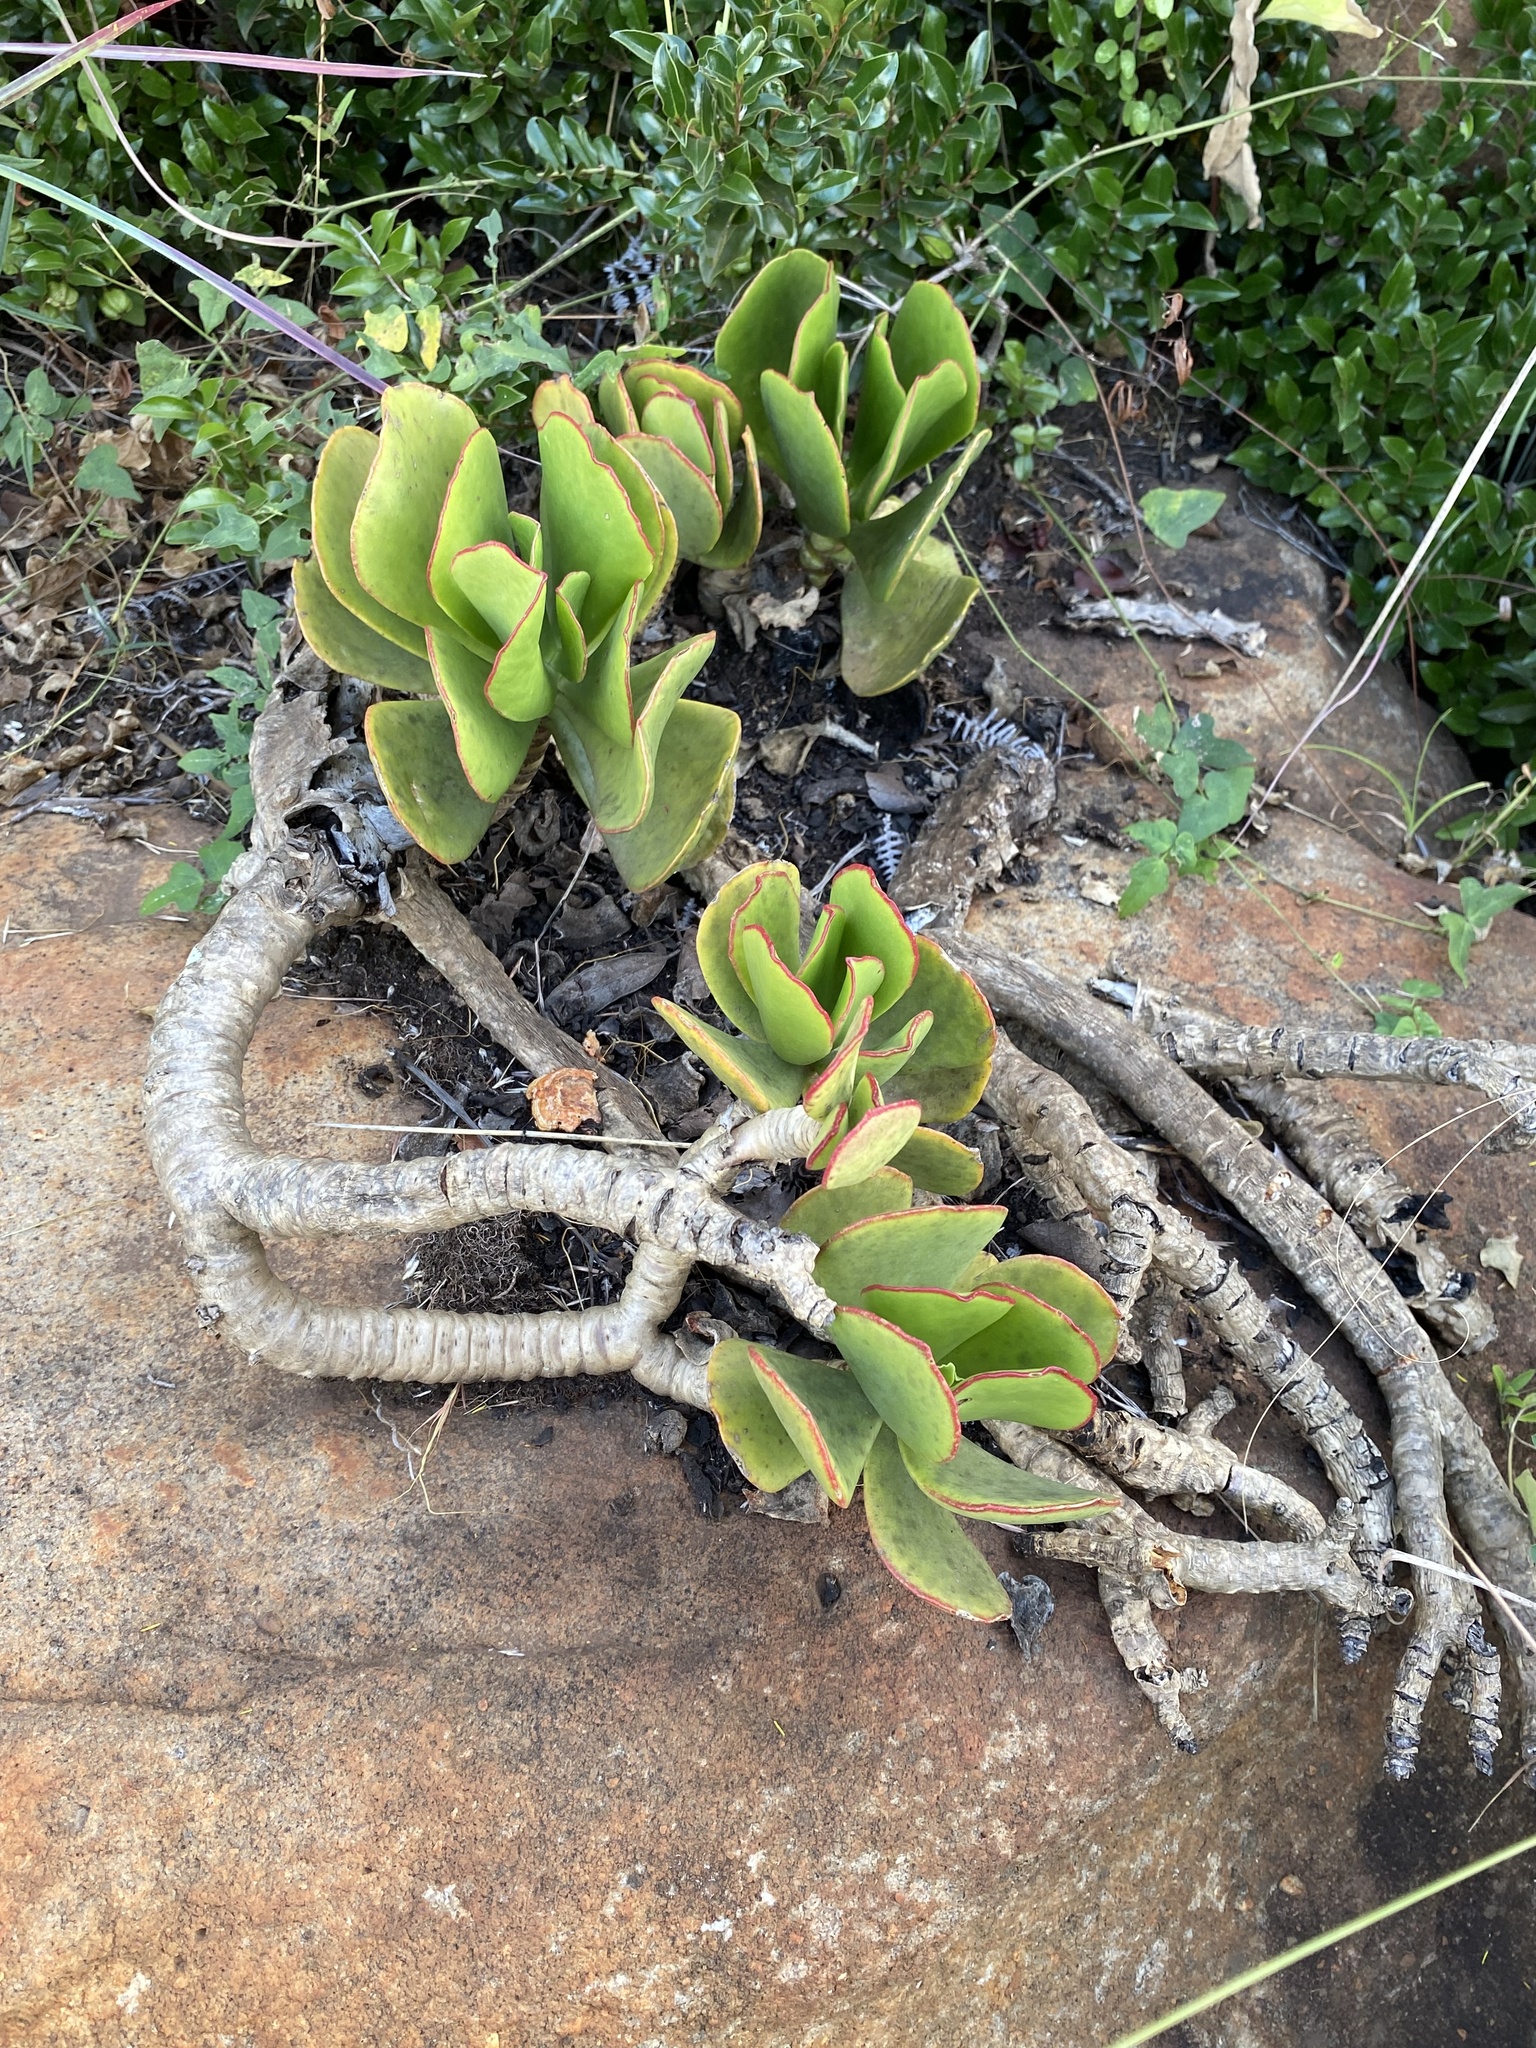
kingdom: Plantae
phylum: Tracheophyta
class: Magnoliopsida
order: Saxifragales
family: Crassulaceae
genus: Cotyledon
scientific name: Cotyledon orbiculata
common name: Pig's ear
